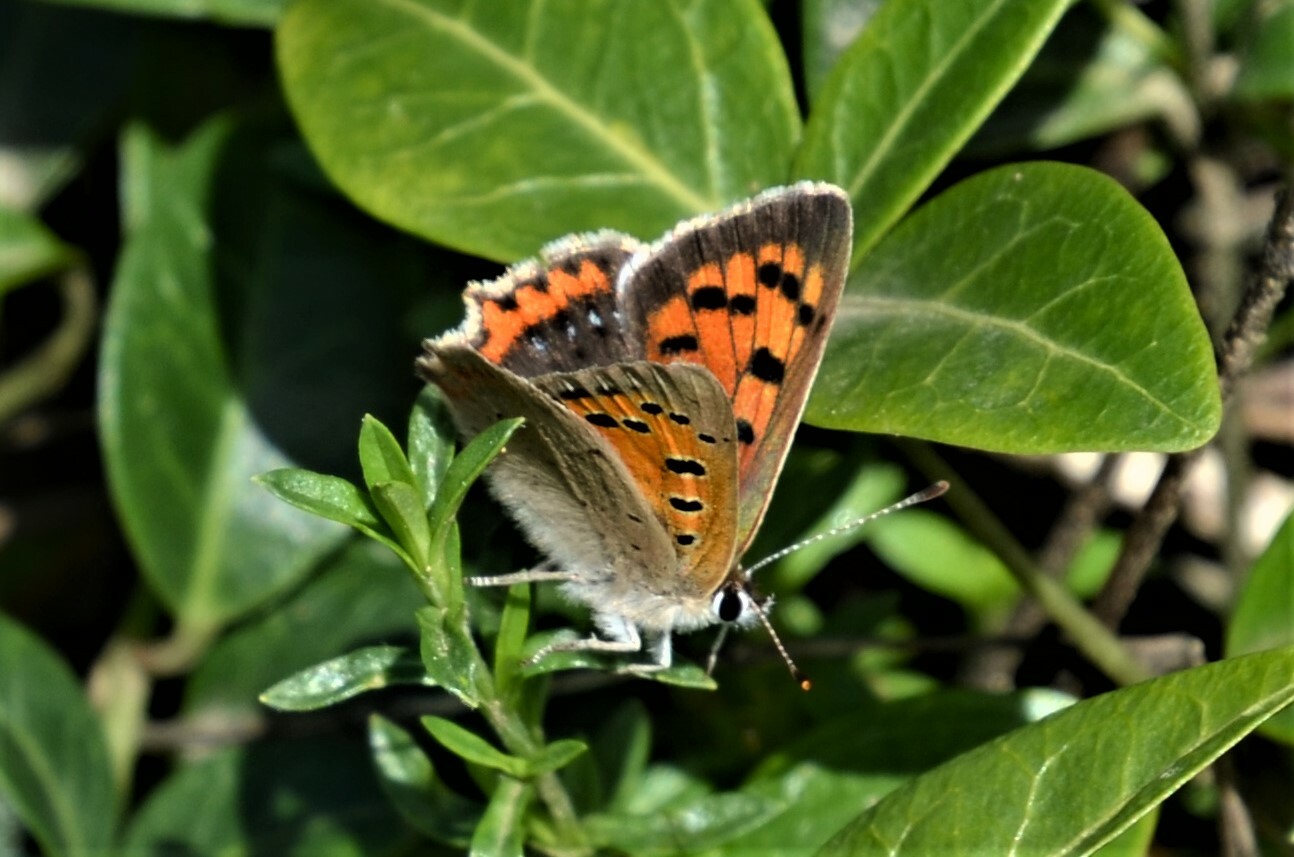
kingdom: Animalia
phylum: Arthropoda
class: Insecta
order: Lepidoptera
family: Lycaenidae
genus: Lycaena
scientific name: Lycaena phlaeas
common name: Small copper
